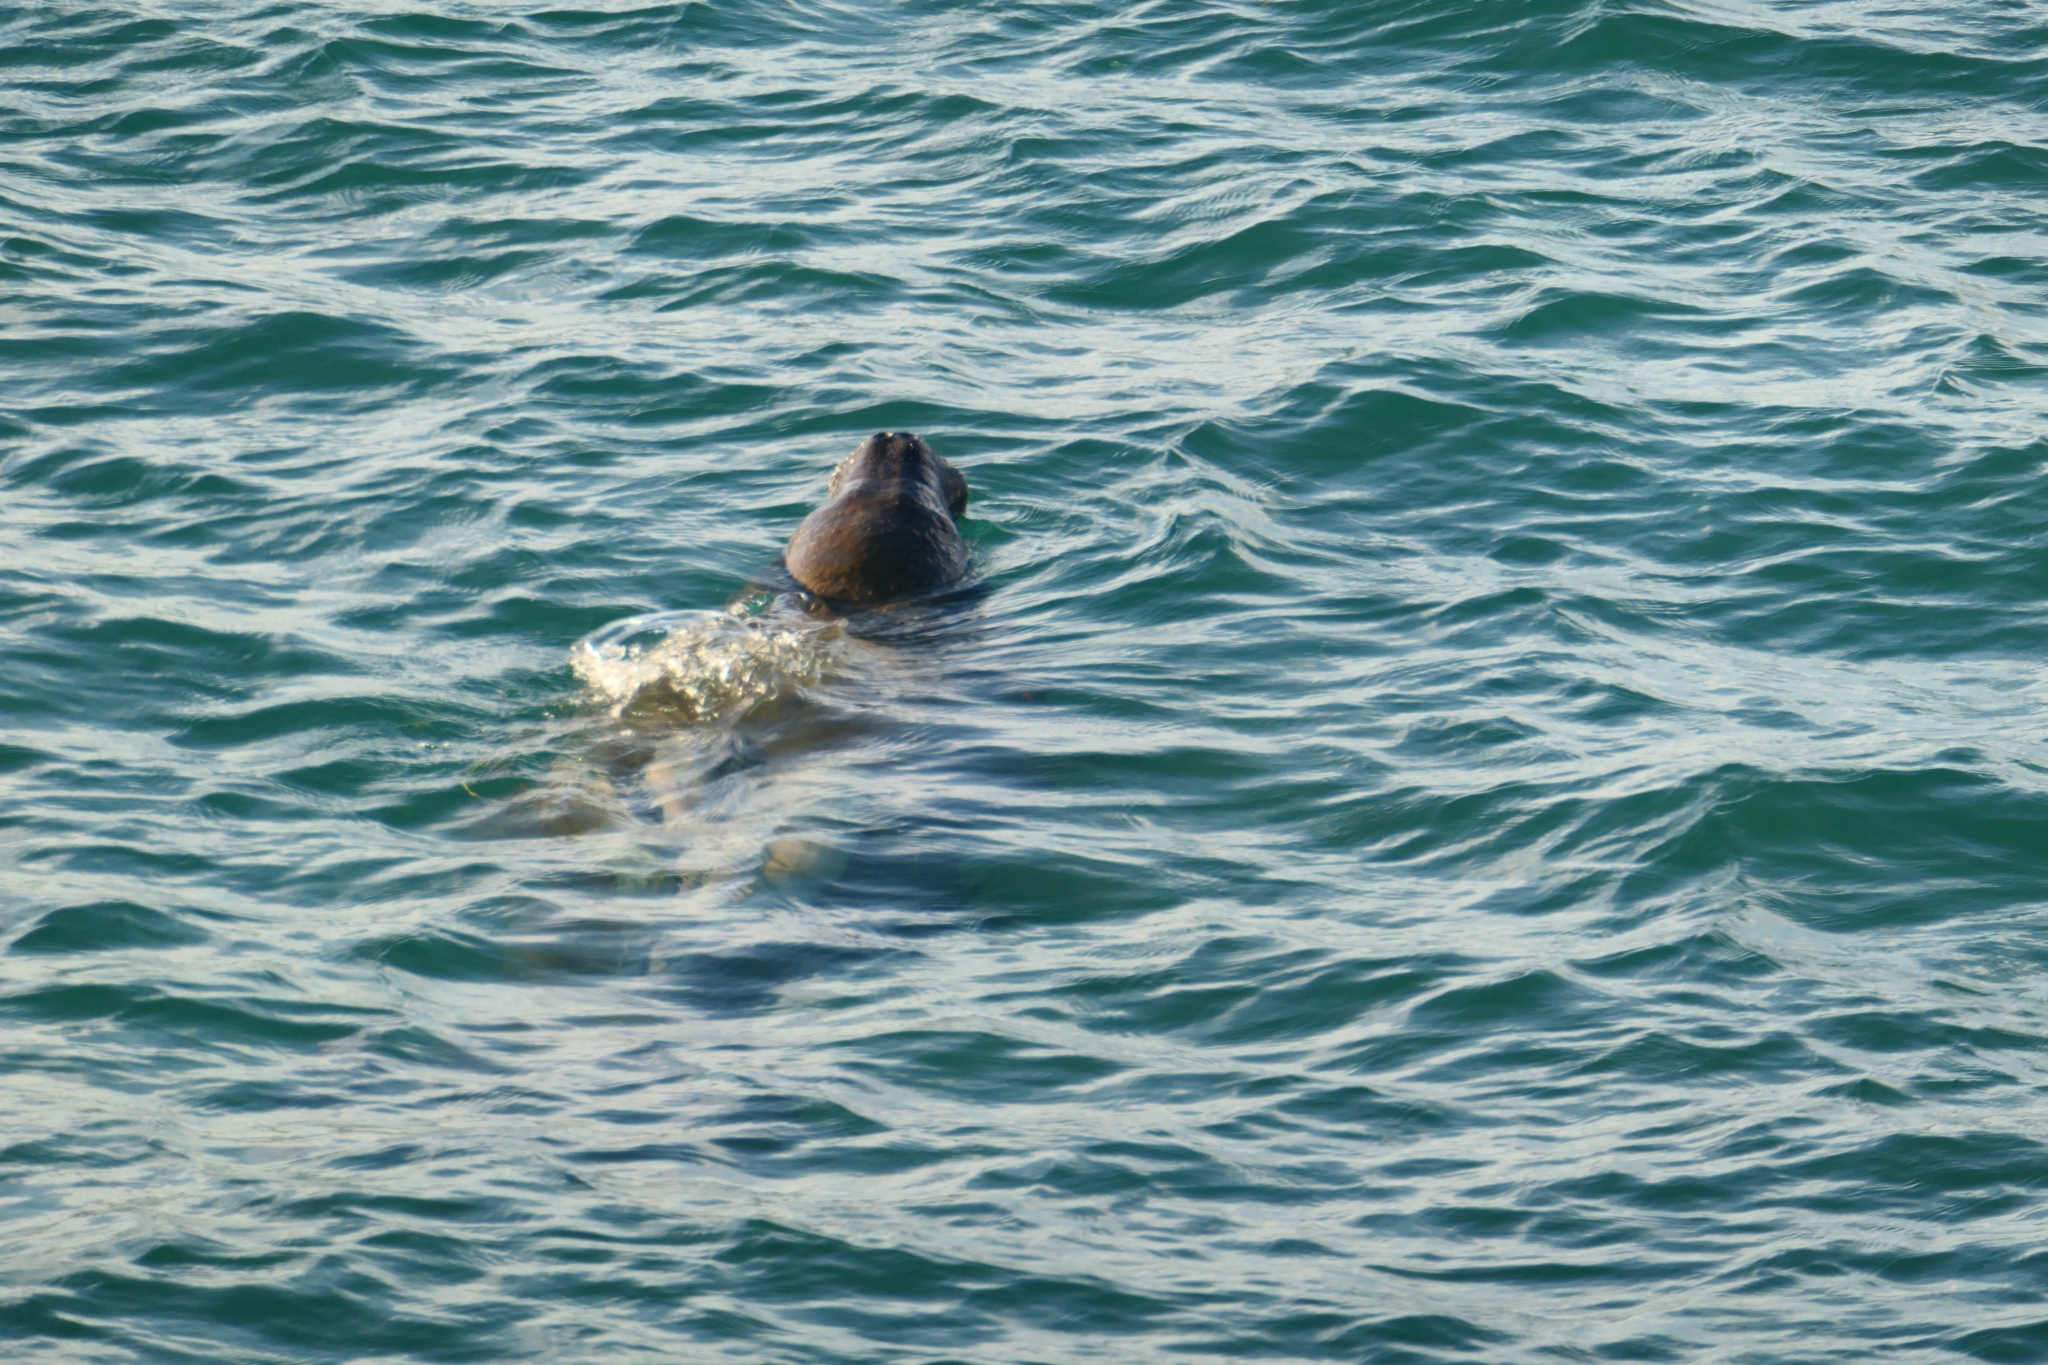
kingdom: Animalia
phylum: Chordata
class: Mammalia
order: Sirenia
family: Trichechidae
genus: Trichechus
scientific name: Trichechus manatus
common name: West indian manatee
